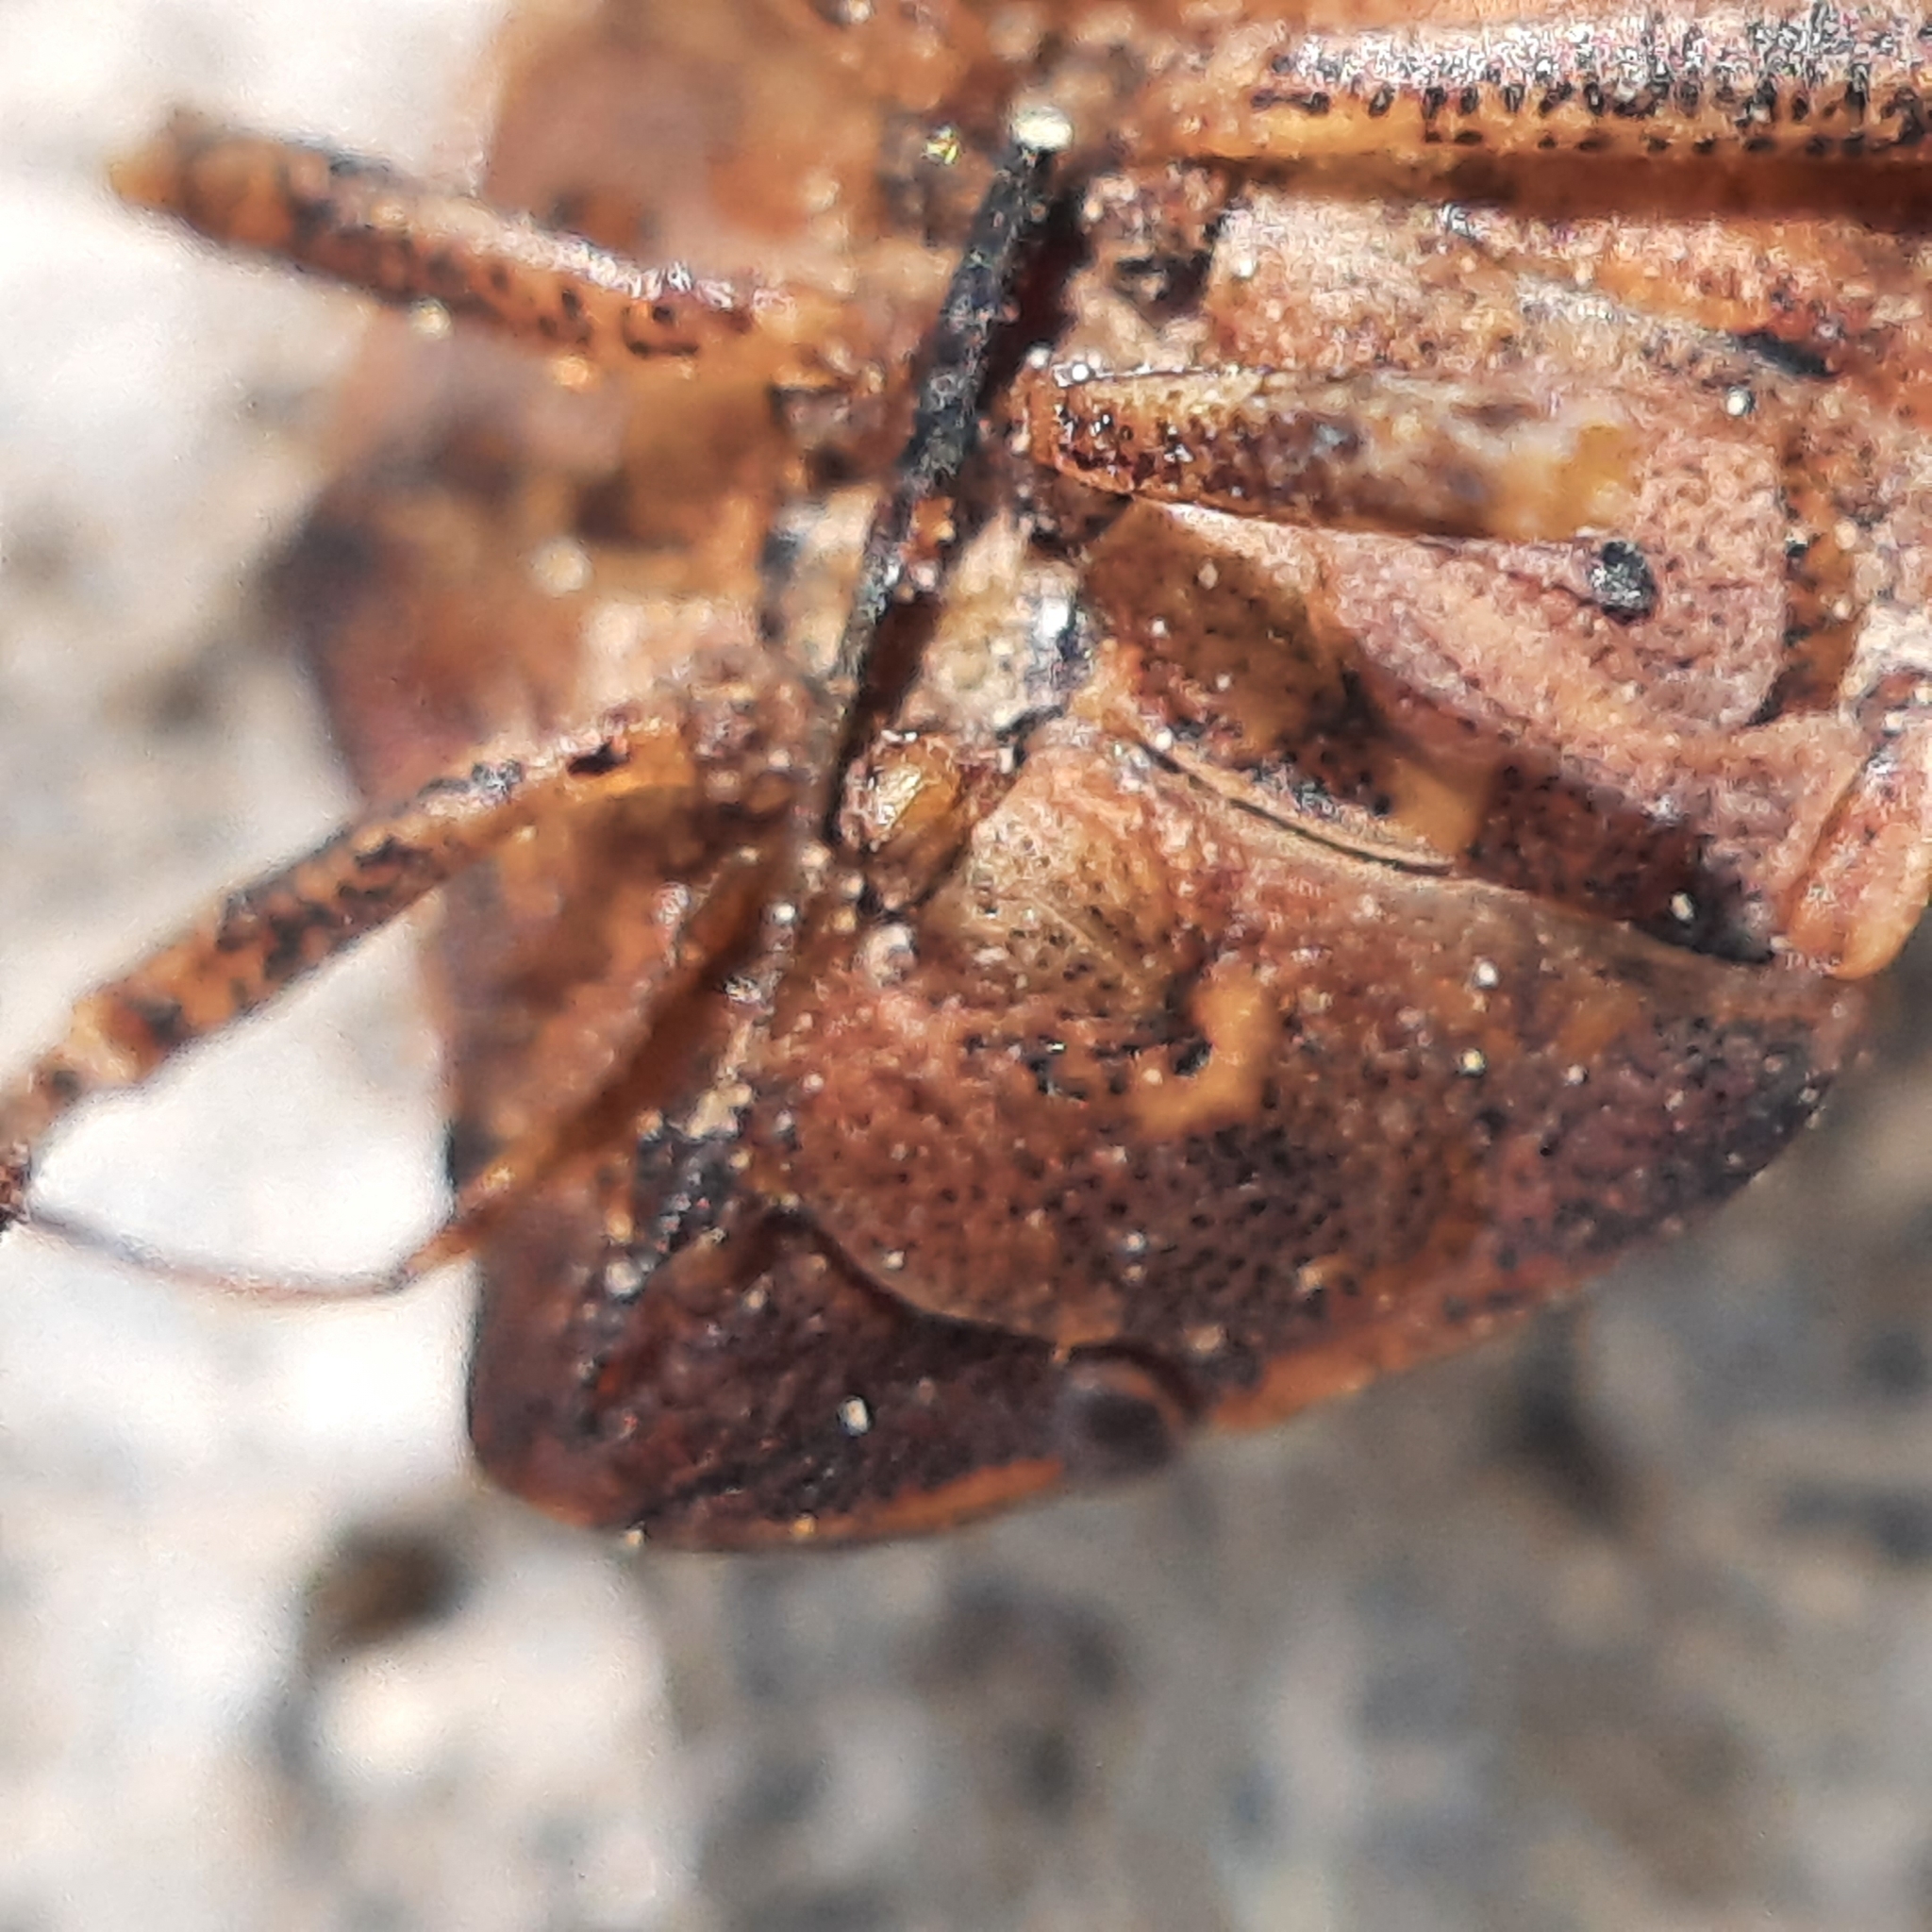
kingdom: Animalia
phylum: Arthropoda
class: Insecta
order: Hemiptera
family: Scutelleridae
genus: Eurygaster
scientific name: Eurygaster maura
